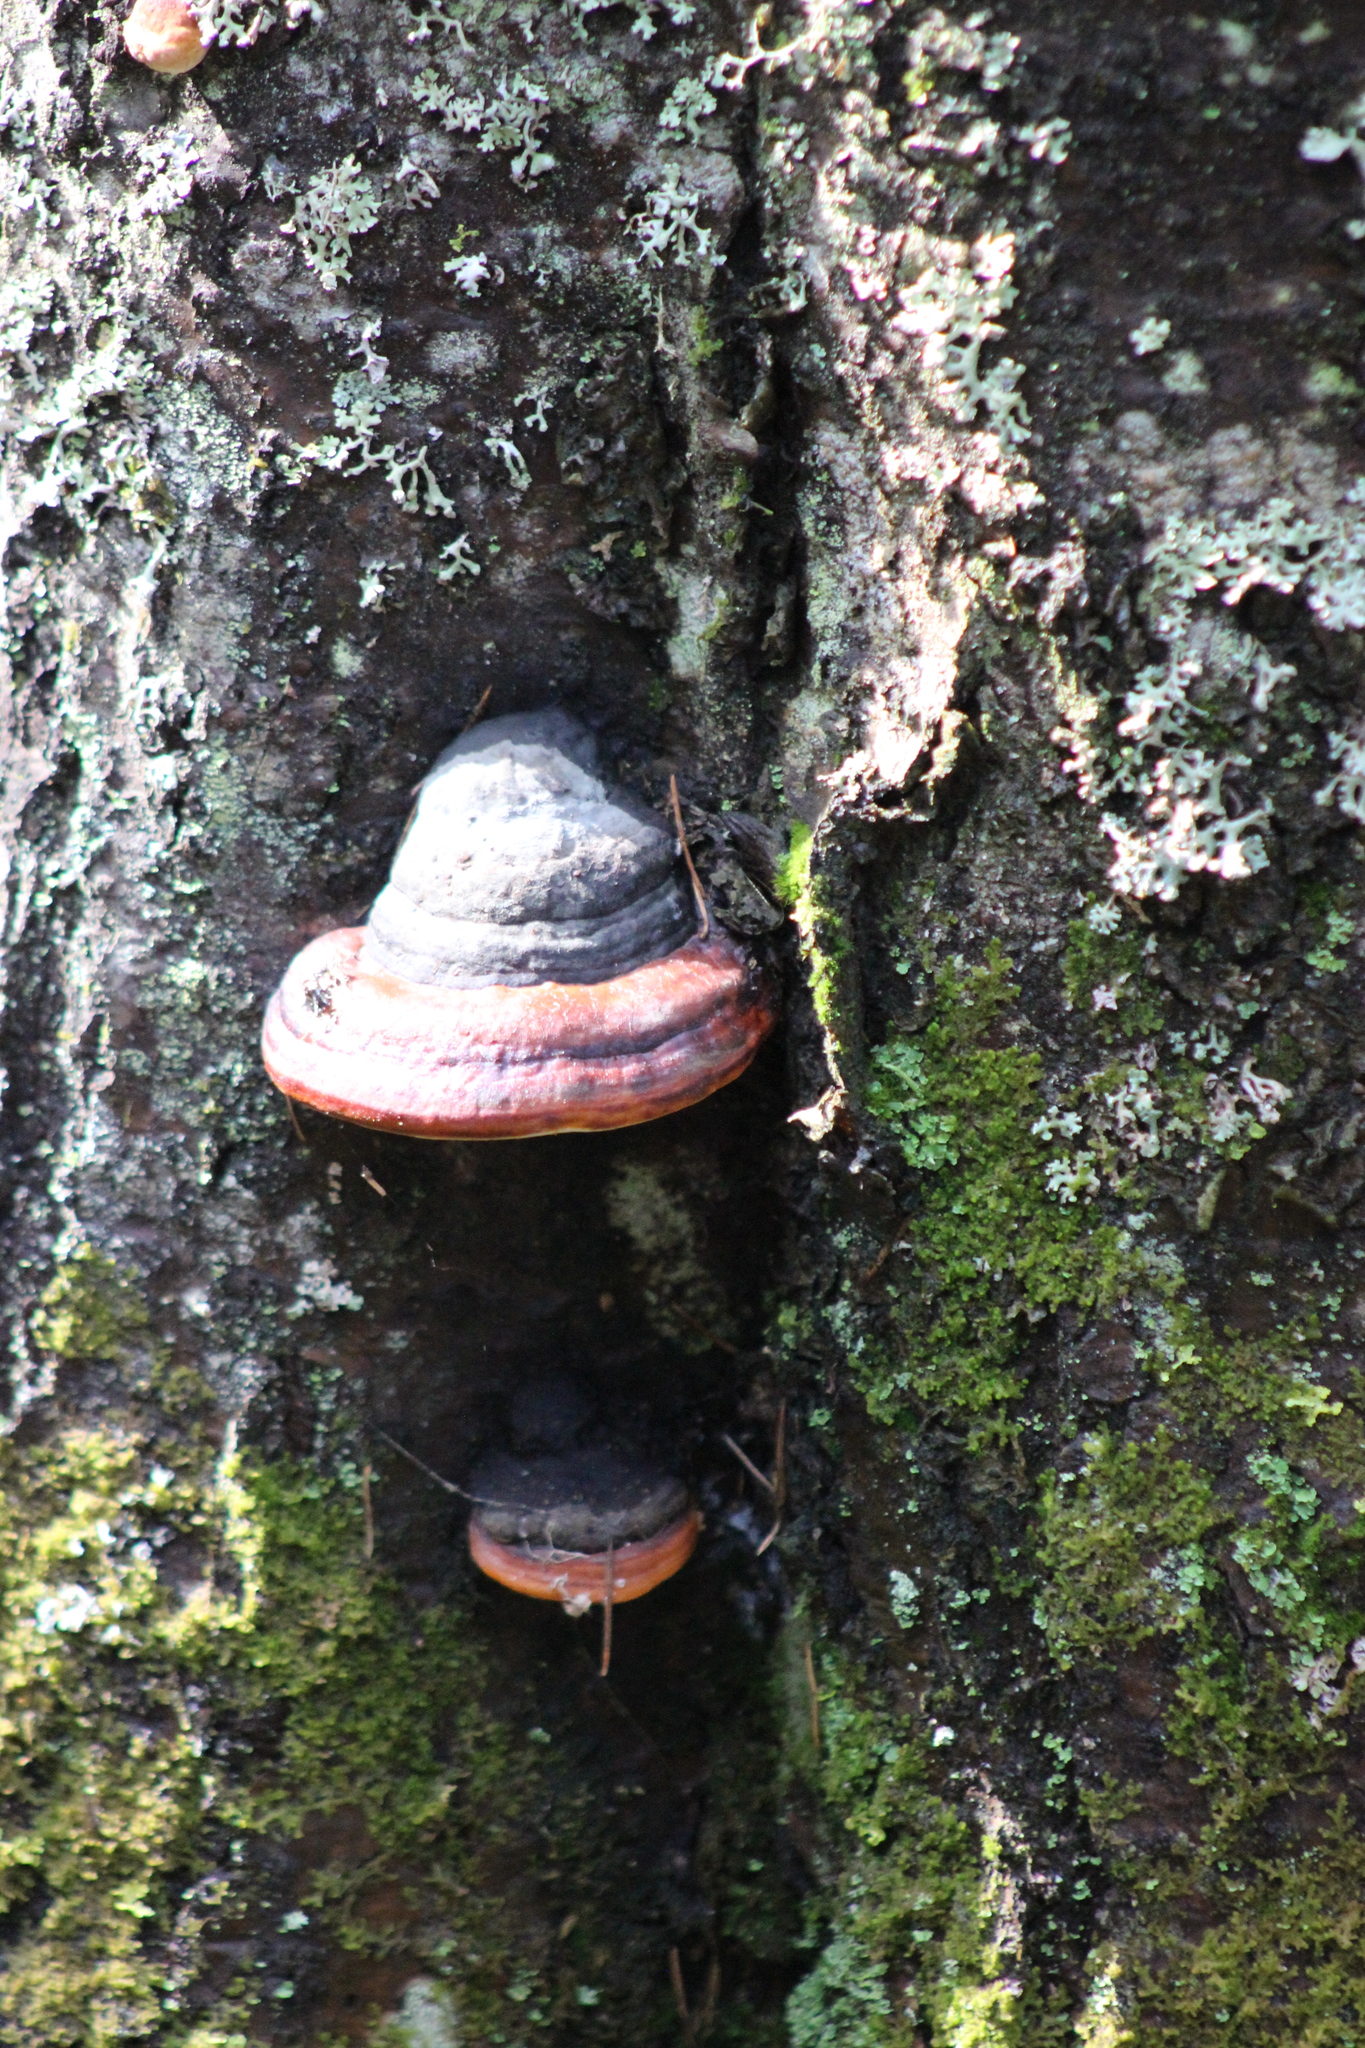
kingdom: Fungi
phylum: Basidiomycota
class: Agaricomycetes
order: Polyporales
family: Fomitopsidaceae
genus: Fomitopsis
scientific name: Fomitopsis pinicola
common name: Red-belted bracket
